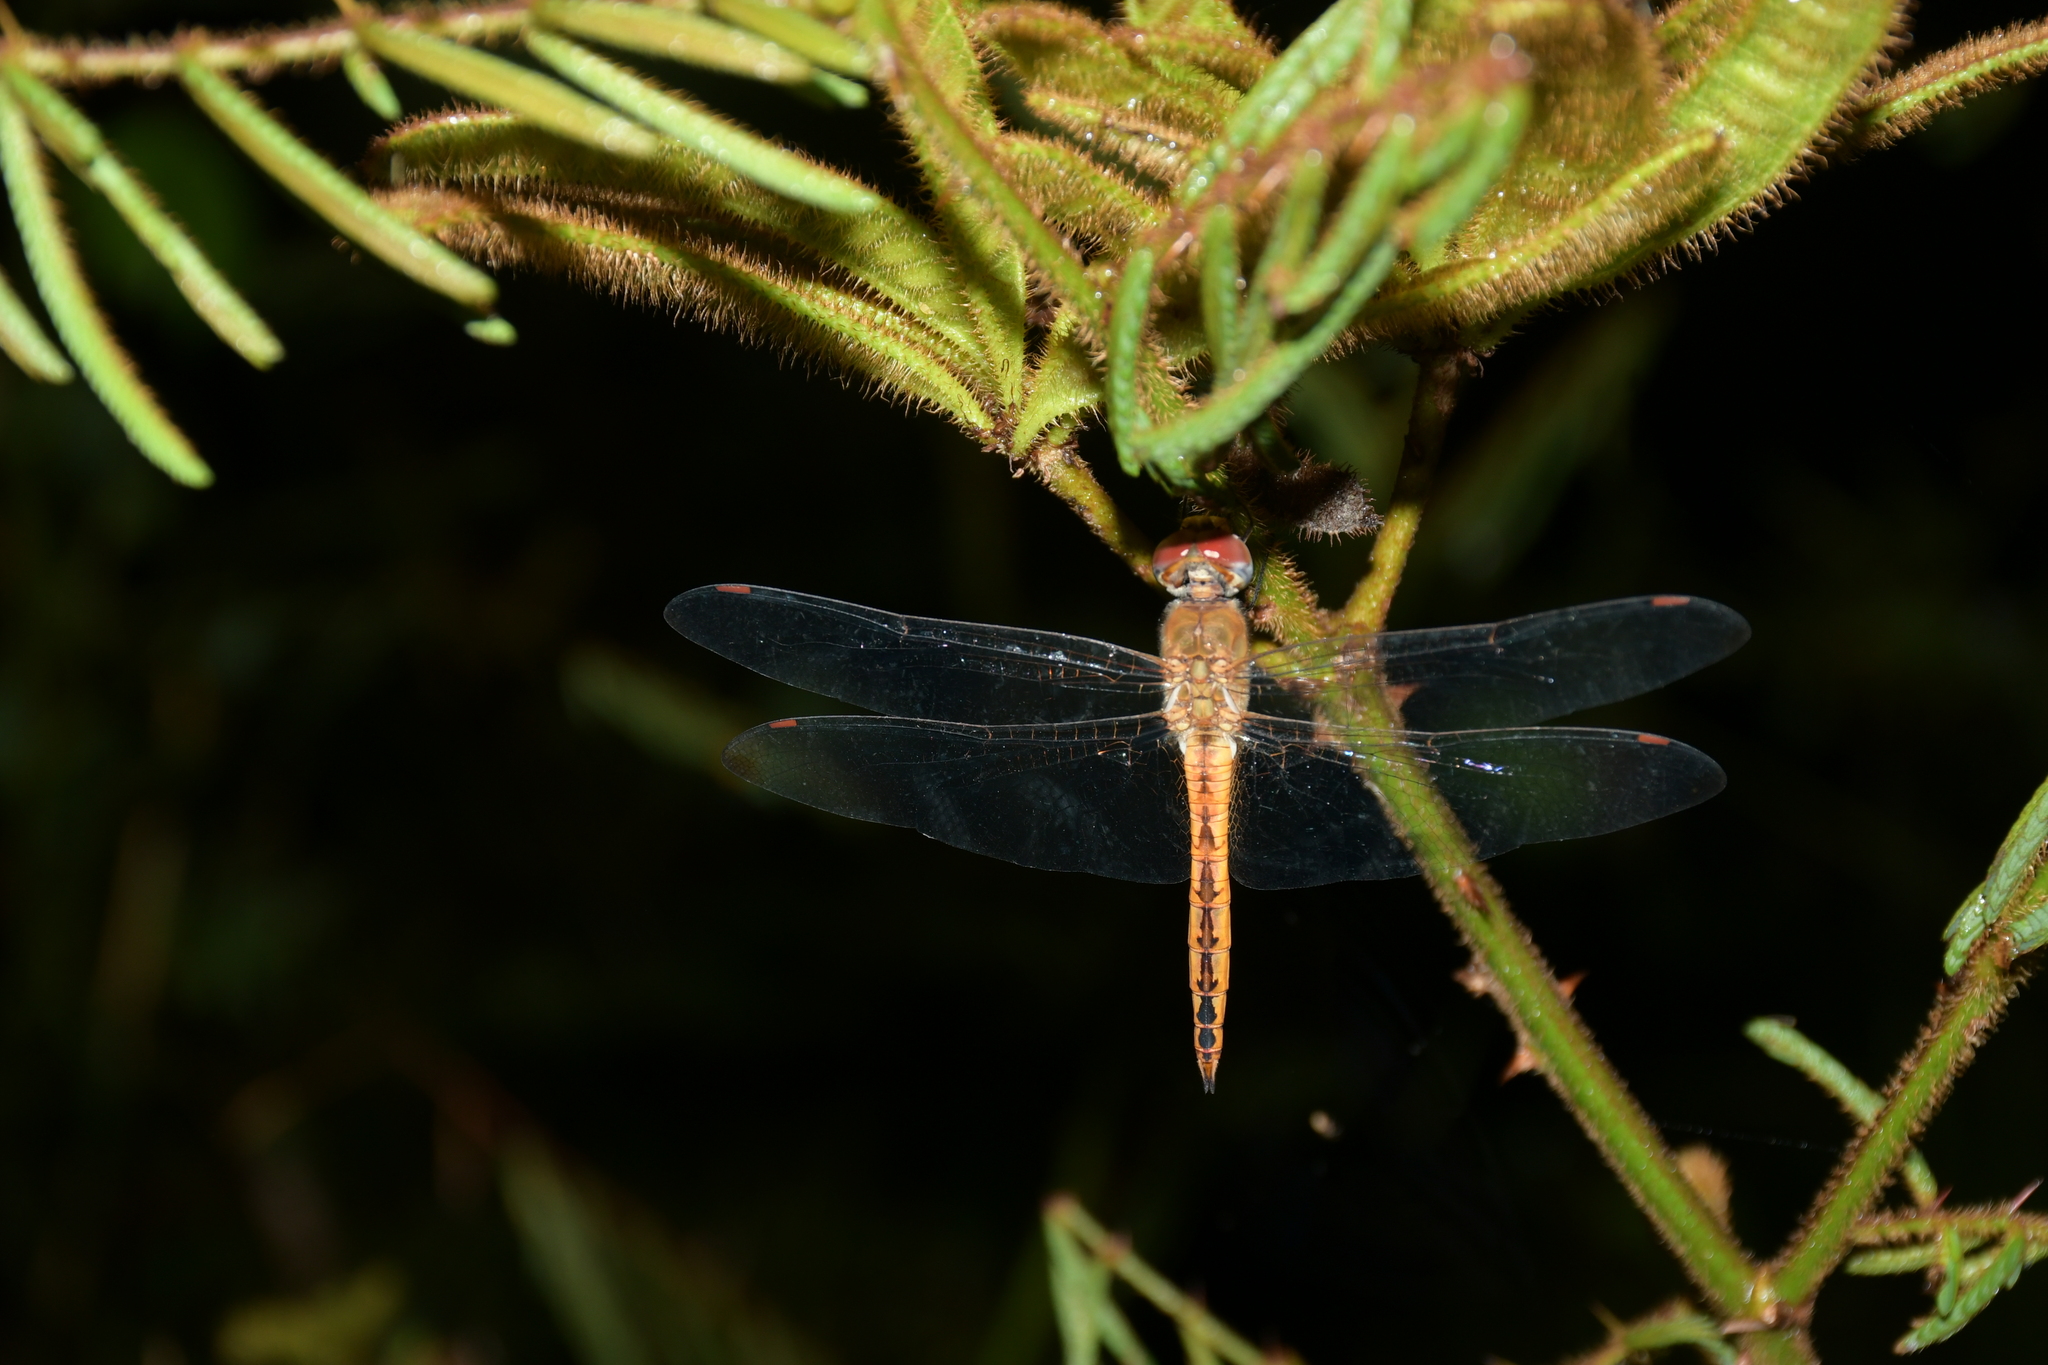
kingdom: Animalia
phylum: Arthropoda
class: Insecta
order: Odonata
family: Libellulidae
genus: Pantala
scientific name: Pantala flavescens
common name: Wandering glider
